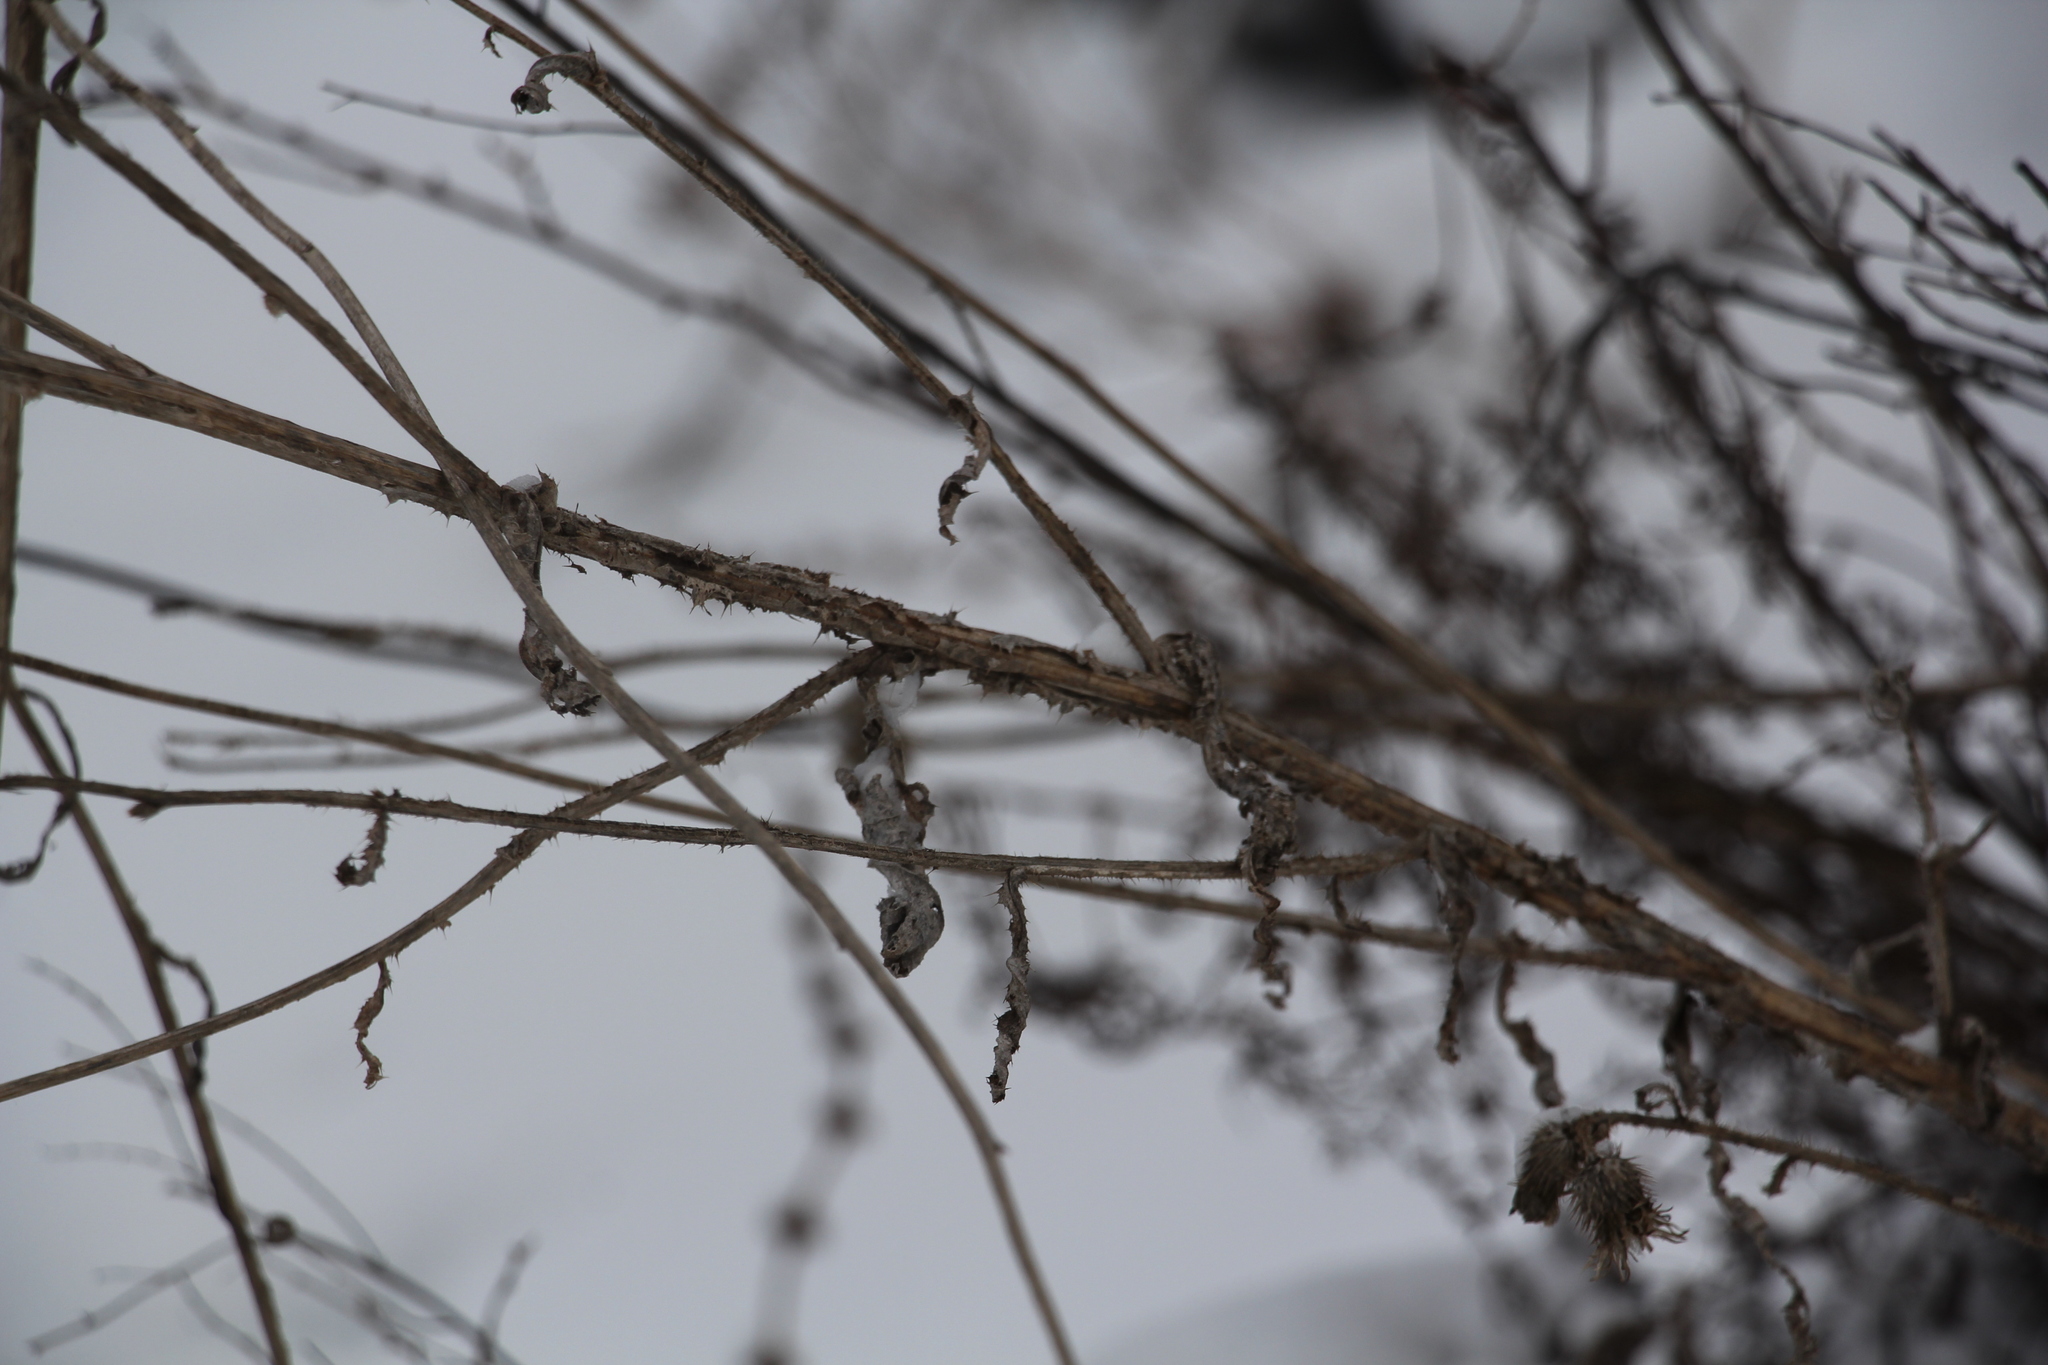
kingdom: Plantae
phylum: Tracheophyta
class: Magnoliopsida
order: Asterales
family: Asteraceae
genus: Cirsium
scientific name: Cirsium arvense
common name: Creeping thistle
